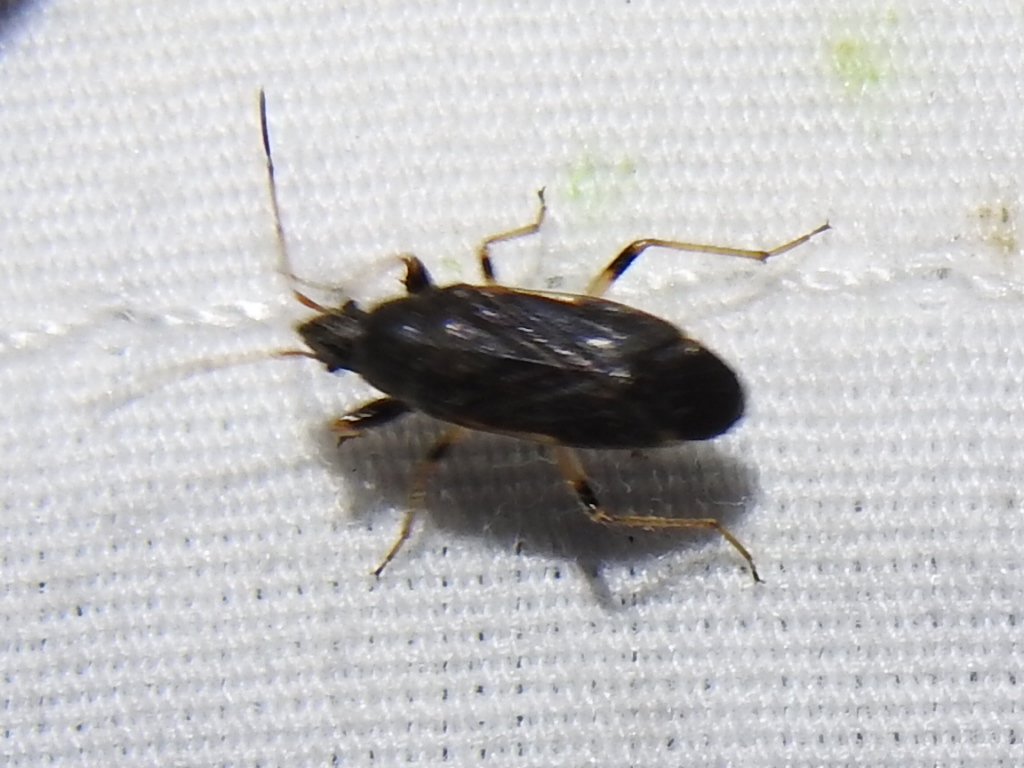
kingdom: Animalia
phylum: Arthropoda
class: Insecta
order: Hemiptera
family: Rhyparochromidae
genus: Perigenes
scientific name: Perigenes similis
